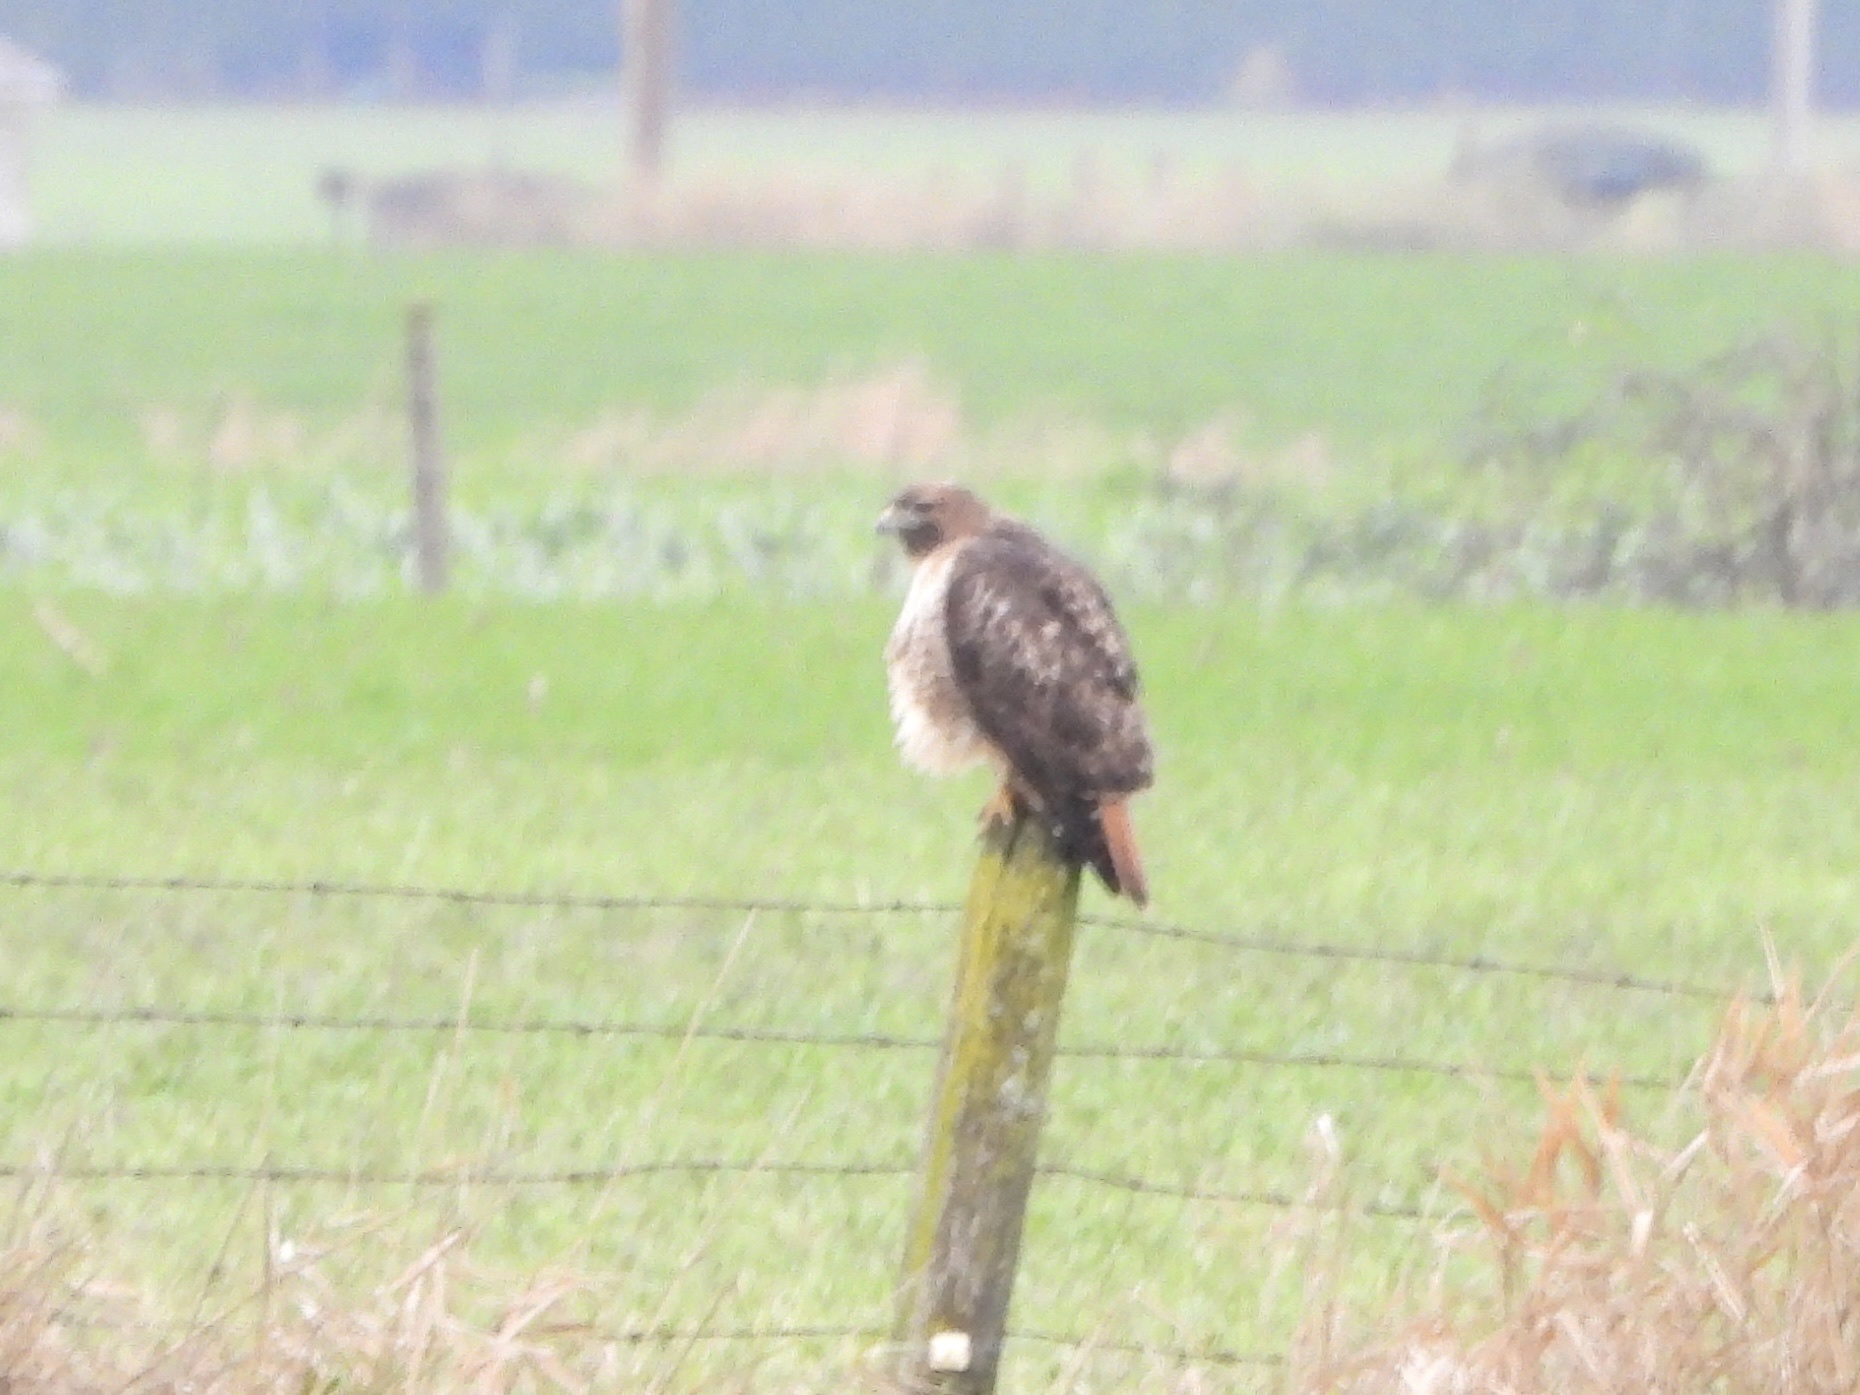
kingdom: Animalia
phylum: Chordata
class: Aves
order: Accipitriformes
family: Accipitridae
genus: Buteo
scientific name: Buteo jamaicensis
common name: Red-tailed hawk
